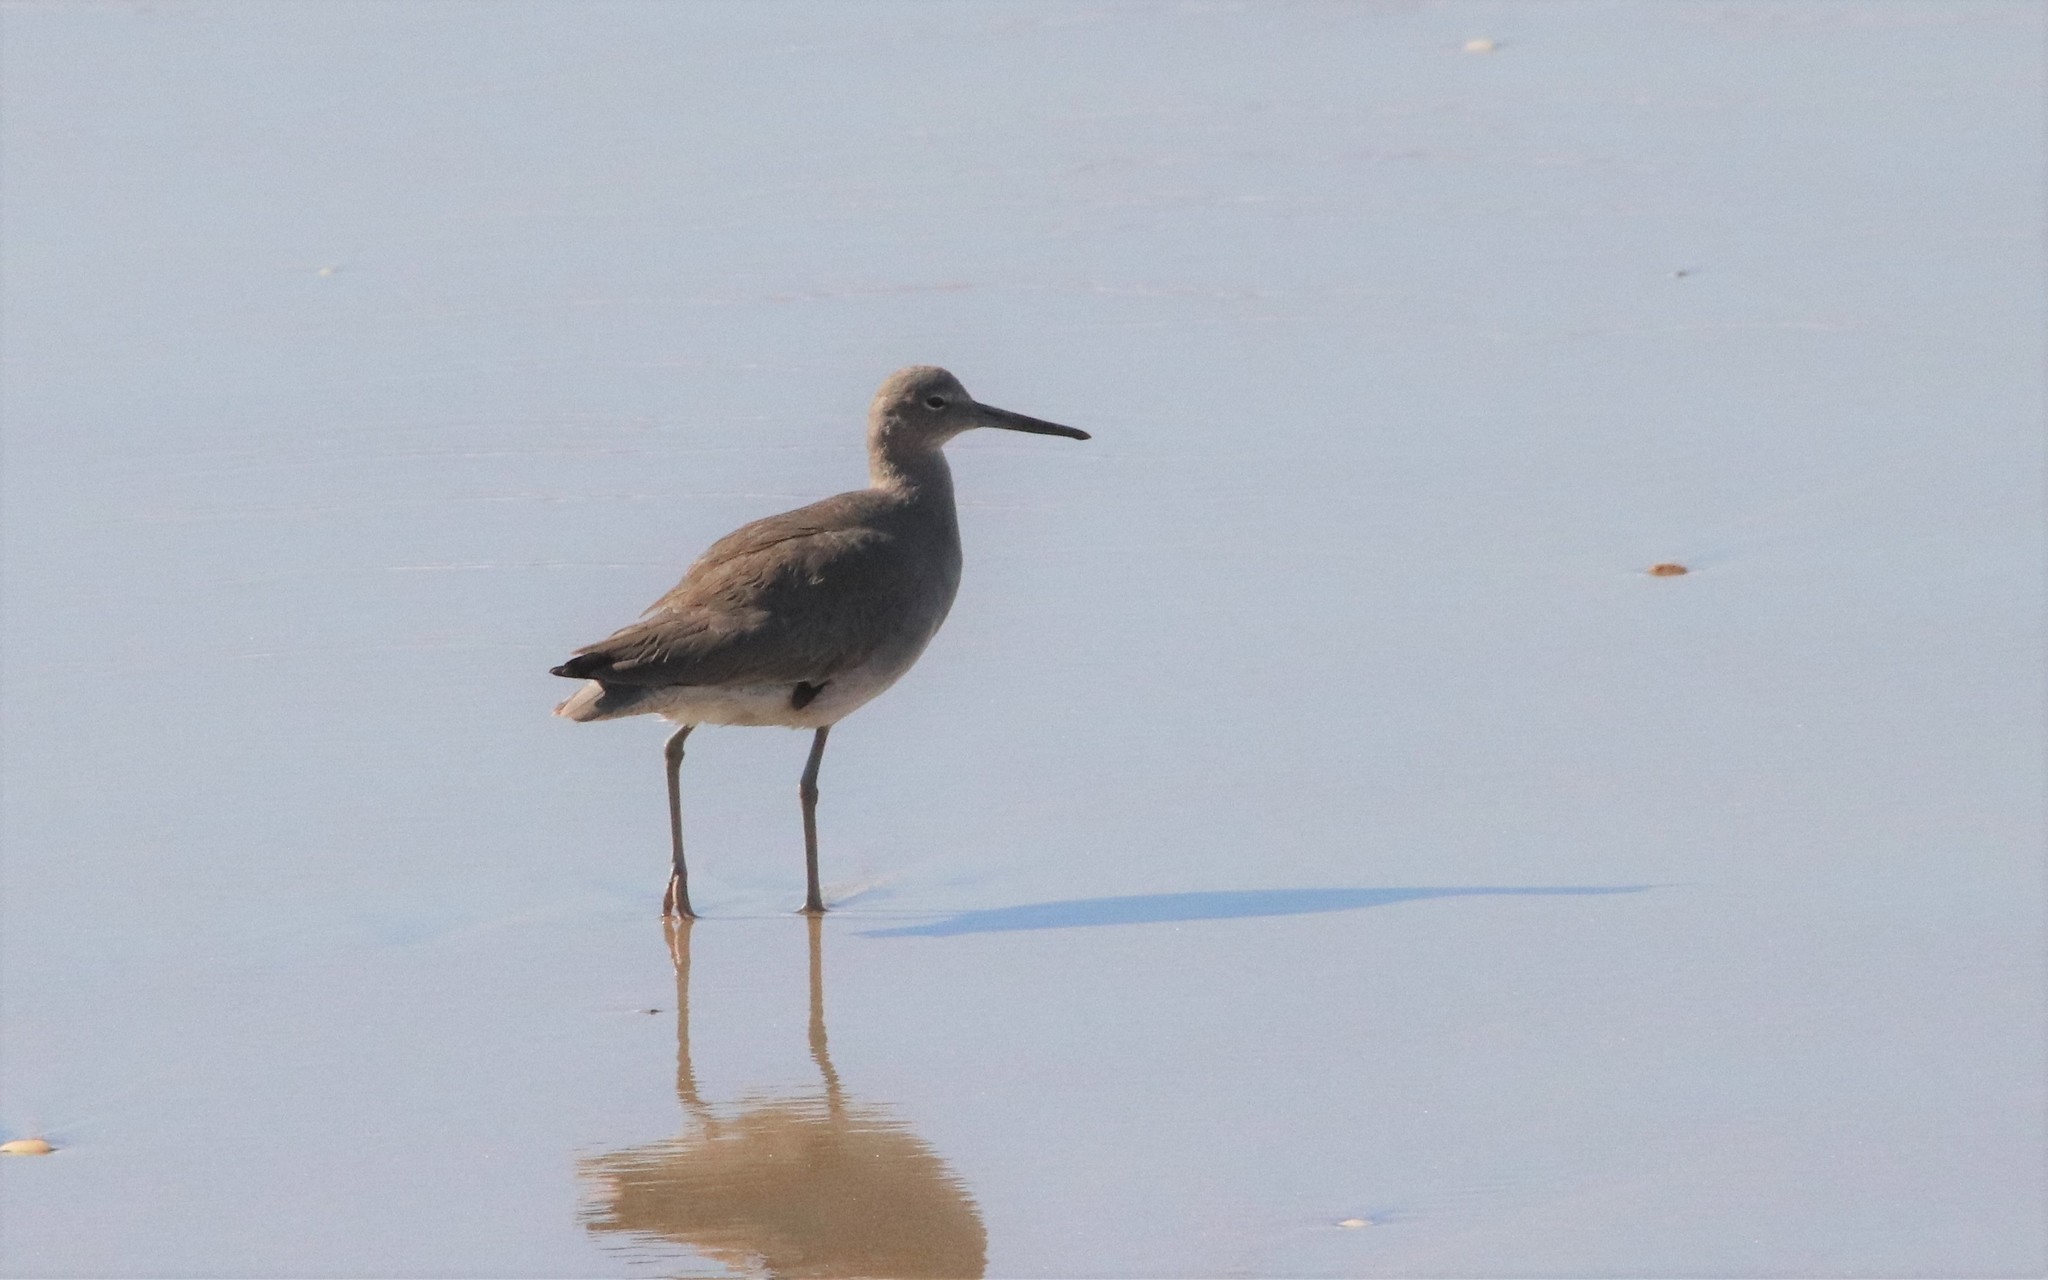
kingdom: Animalia
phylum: Chordata
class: Aves
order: Charadriiformes
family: Scolopacidae
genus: Tringa
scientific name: Tringa semipalmata
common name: Willet
